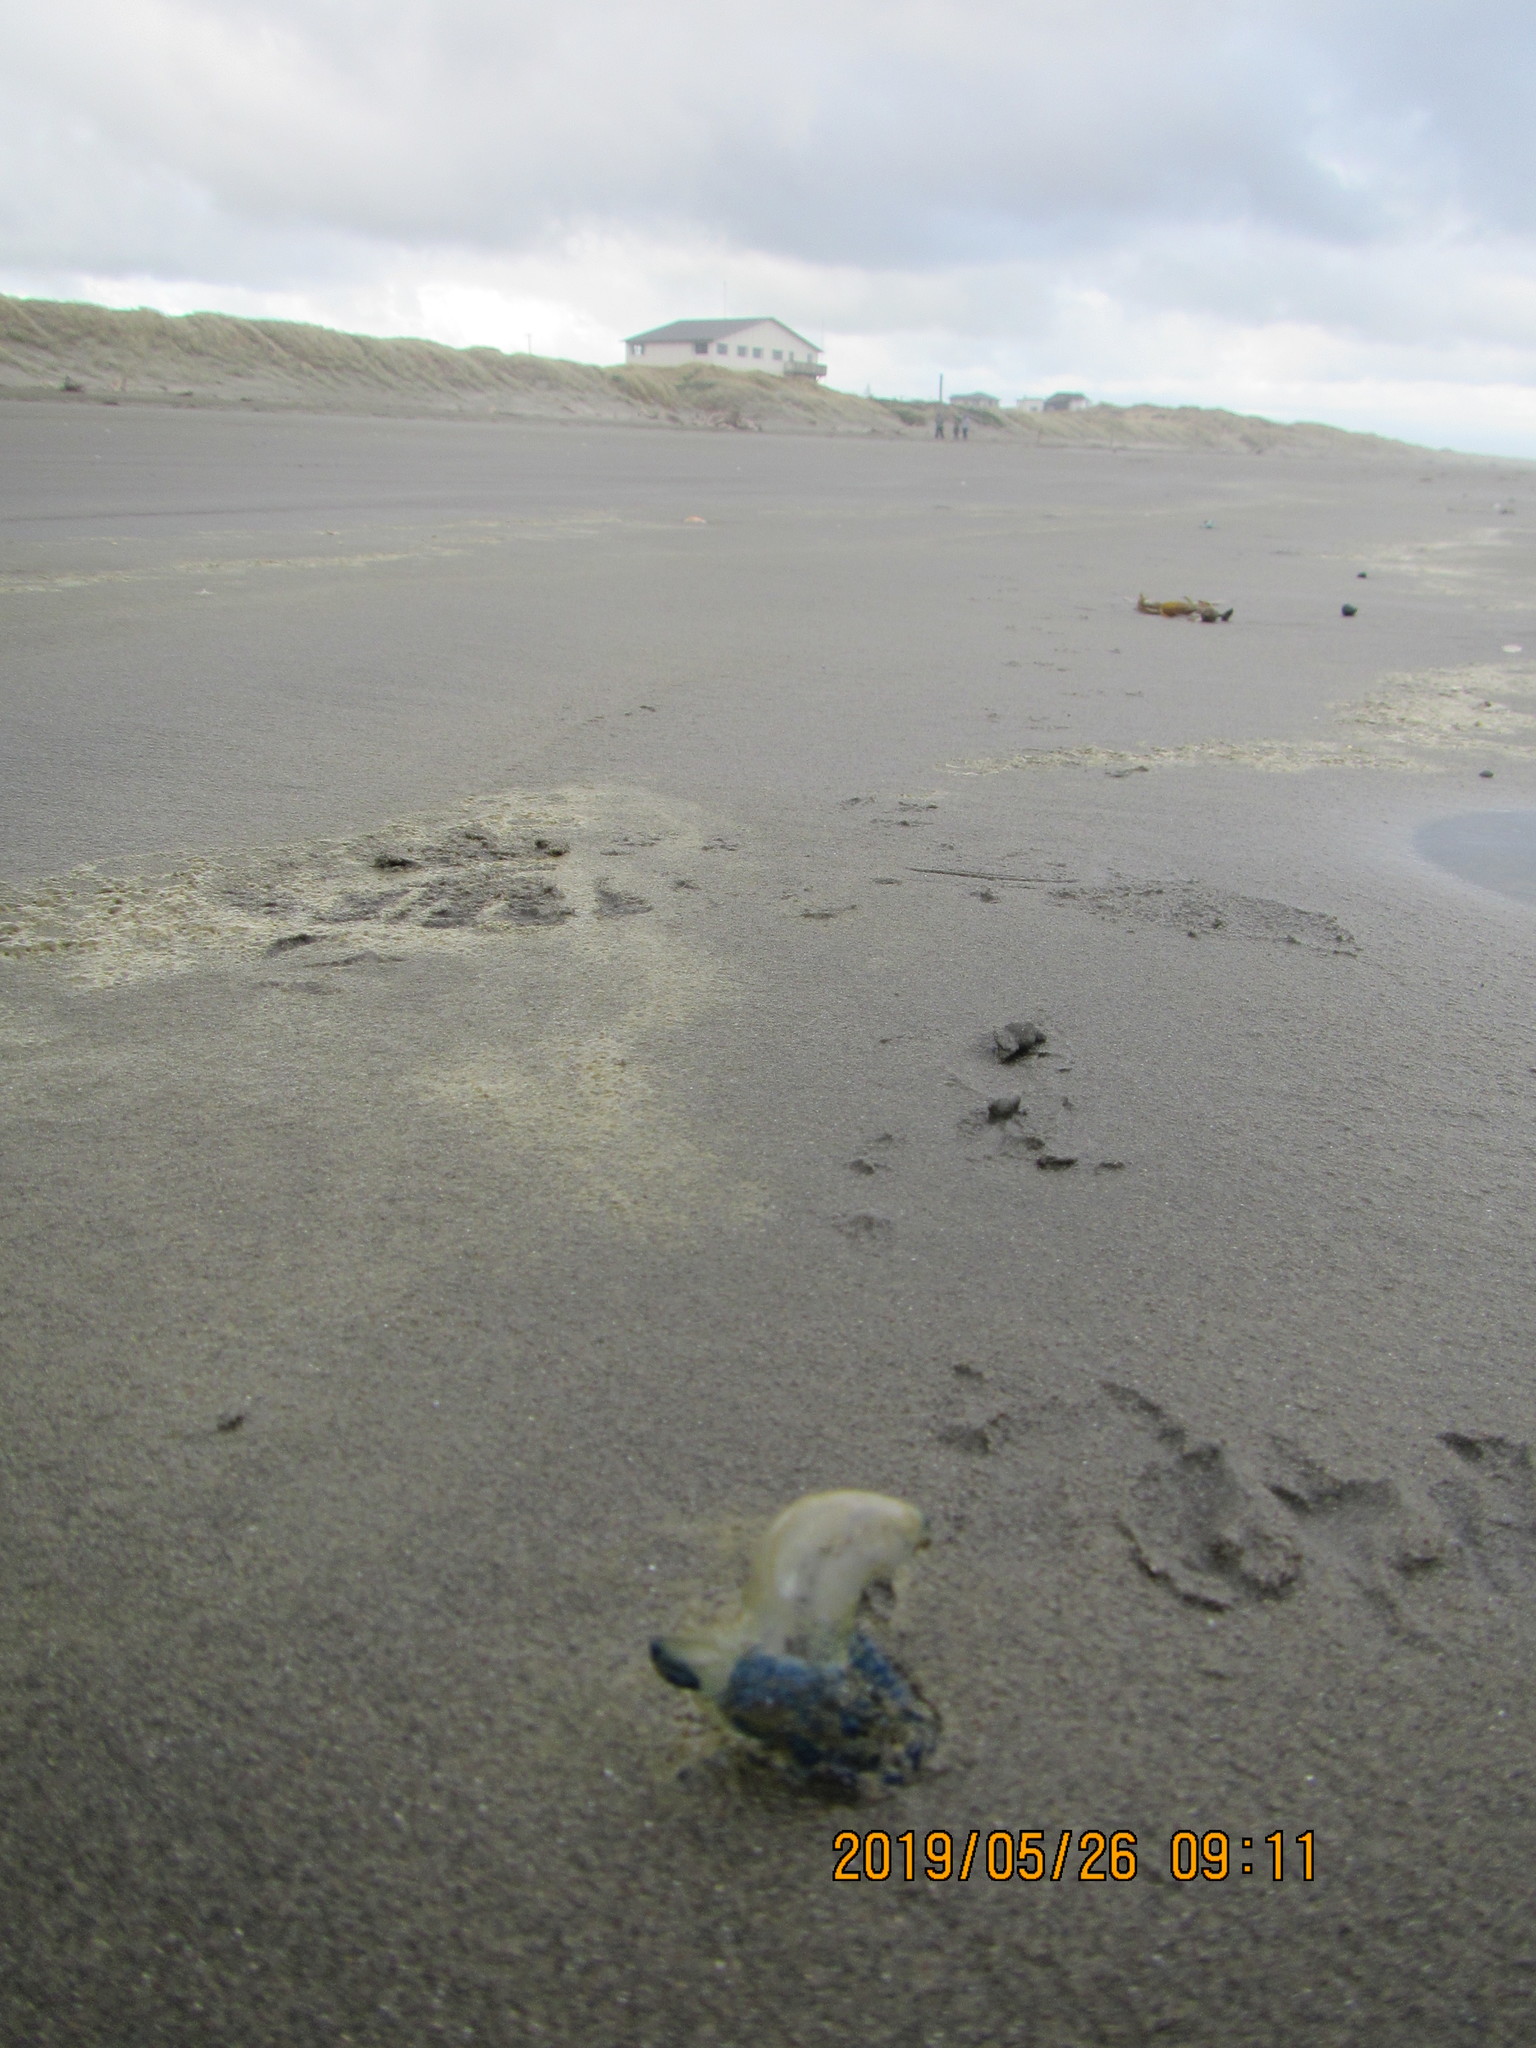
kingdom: Animalia
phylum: Cnidaria
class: Hydrozoa
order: Siphonophorae
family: Physaliidae
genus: Physalia
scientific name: Physalia physalis
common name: Portuguese man-of-war
